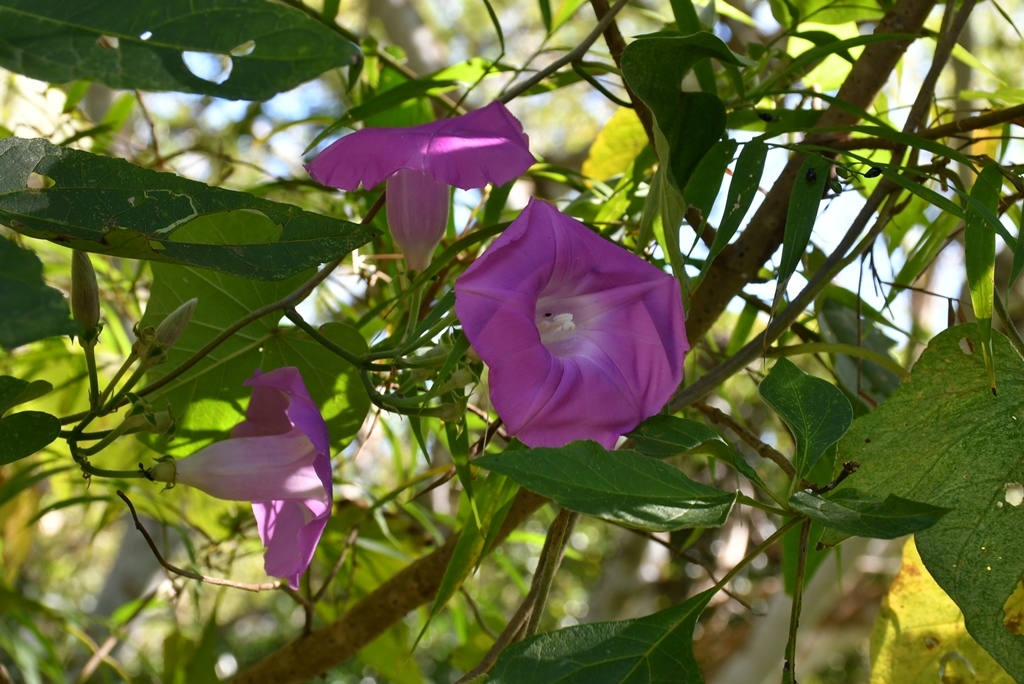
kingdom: Plantae
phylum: Tracheophyta
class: Magnoliopsida
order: Solanales
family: Convolvulaceae
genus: Ipomoea
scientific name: Ipomoea leucotricha
